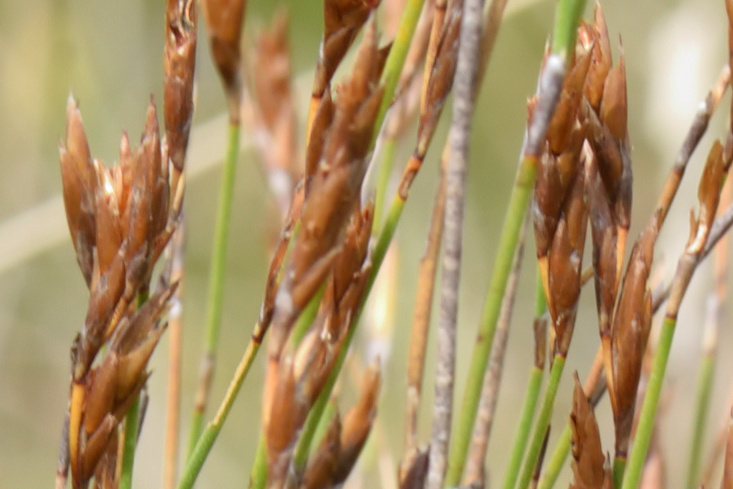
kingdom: Plantae
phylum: Tracheophyta
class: Liliopsida
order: Poales
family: Restionaceae
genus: Restio
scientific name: Restio triticeus
